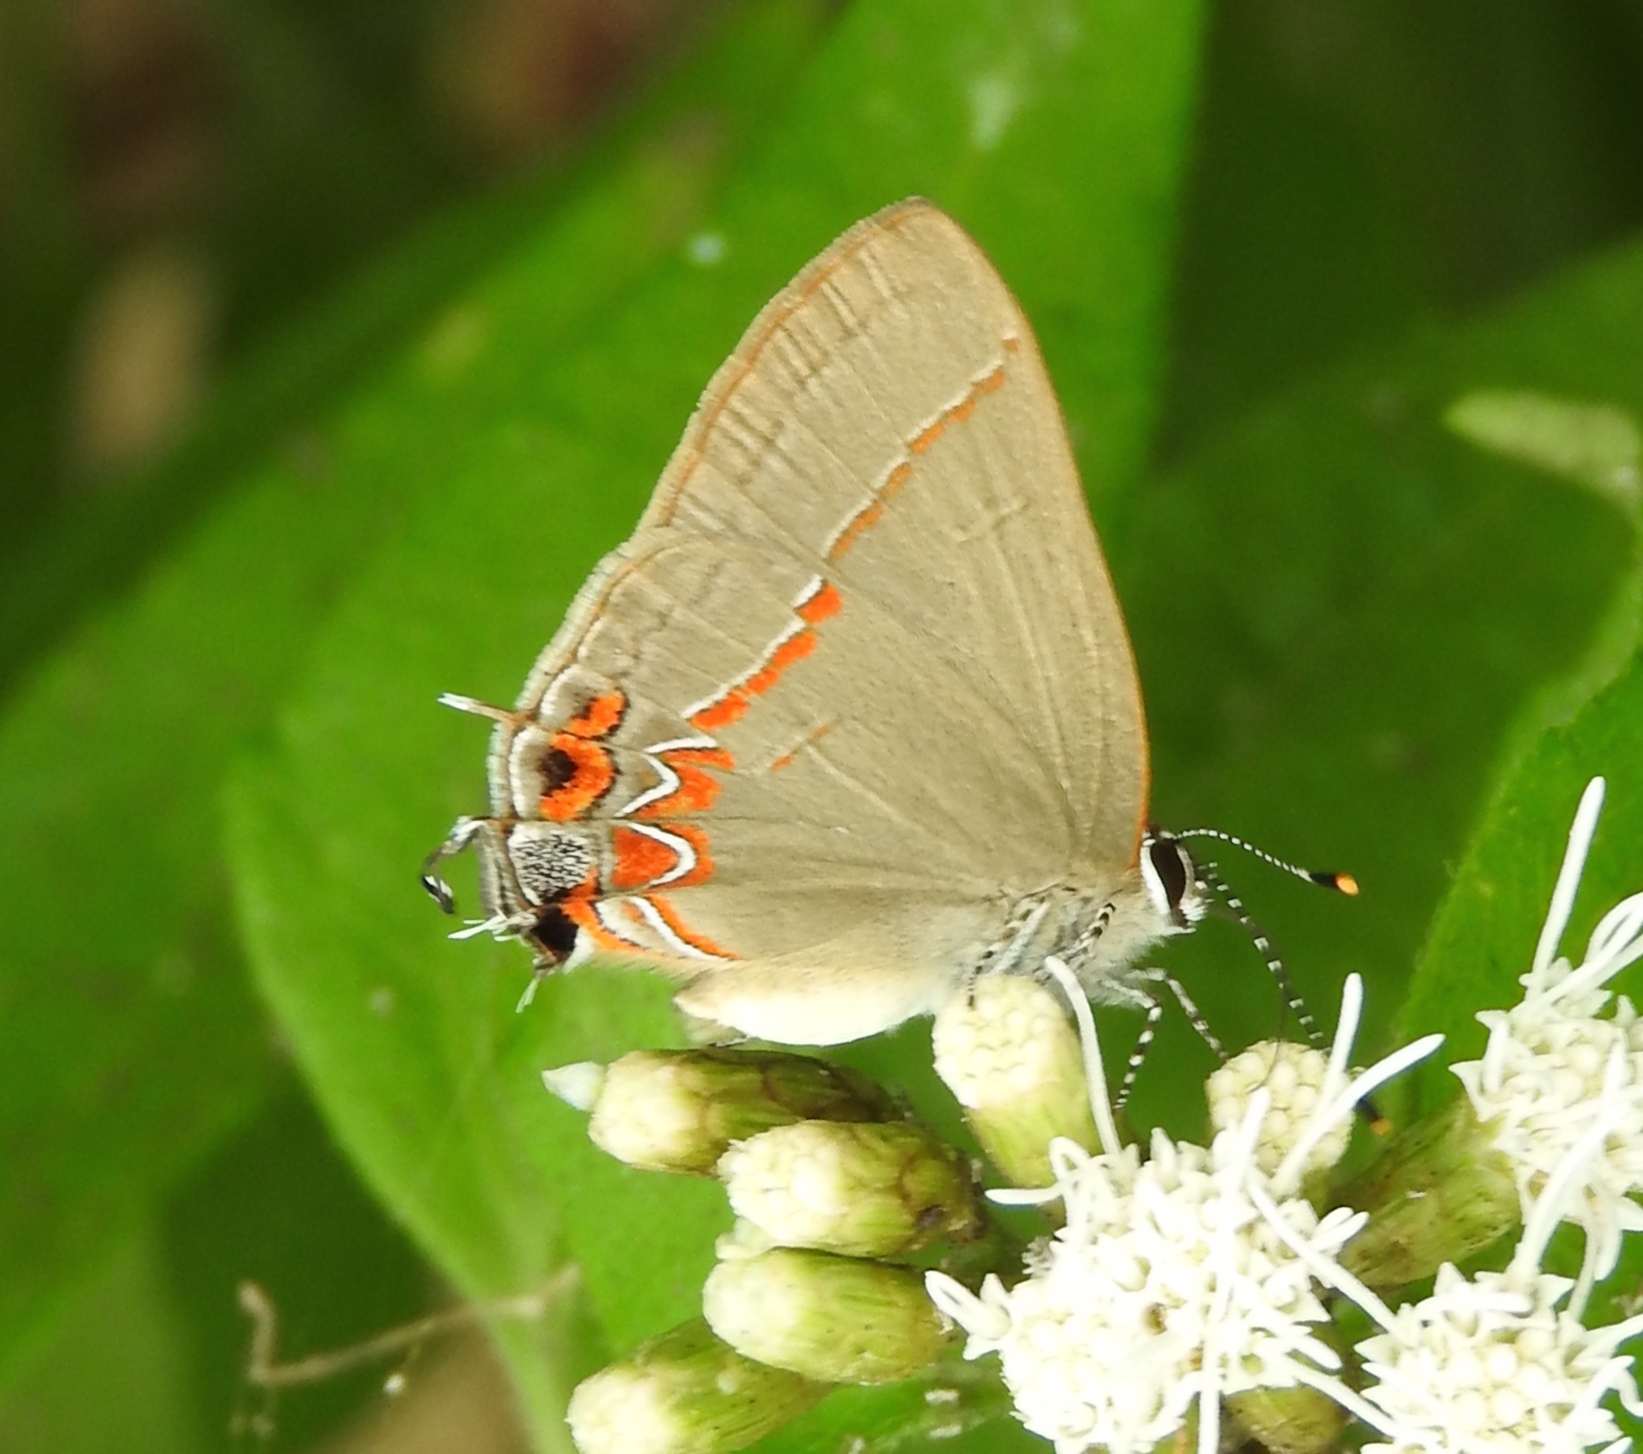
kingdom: Animalia
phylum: Arthropoda
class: Insecta
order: Lepidoptera
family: Lycaenidae
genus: Calycopis
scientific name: Calycopis
